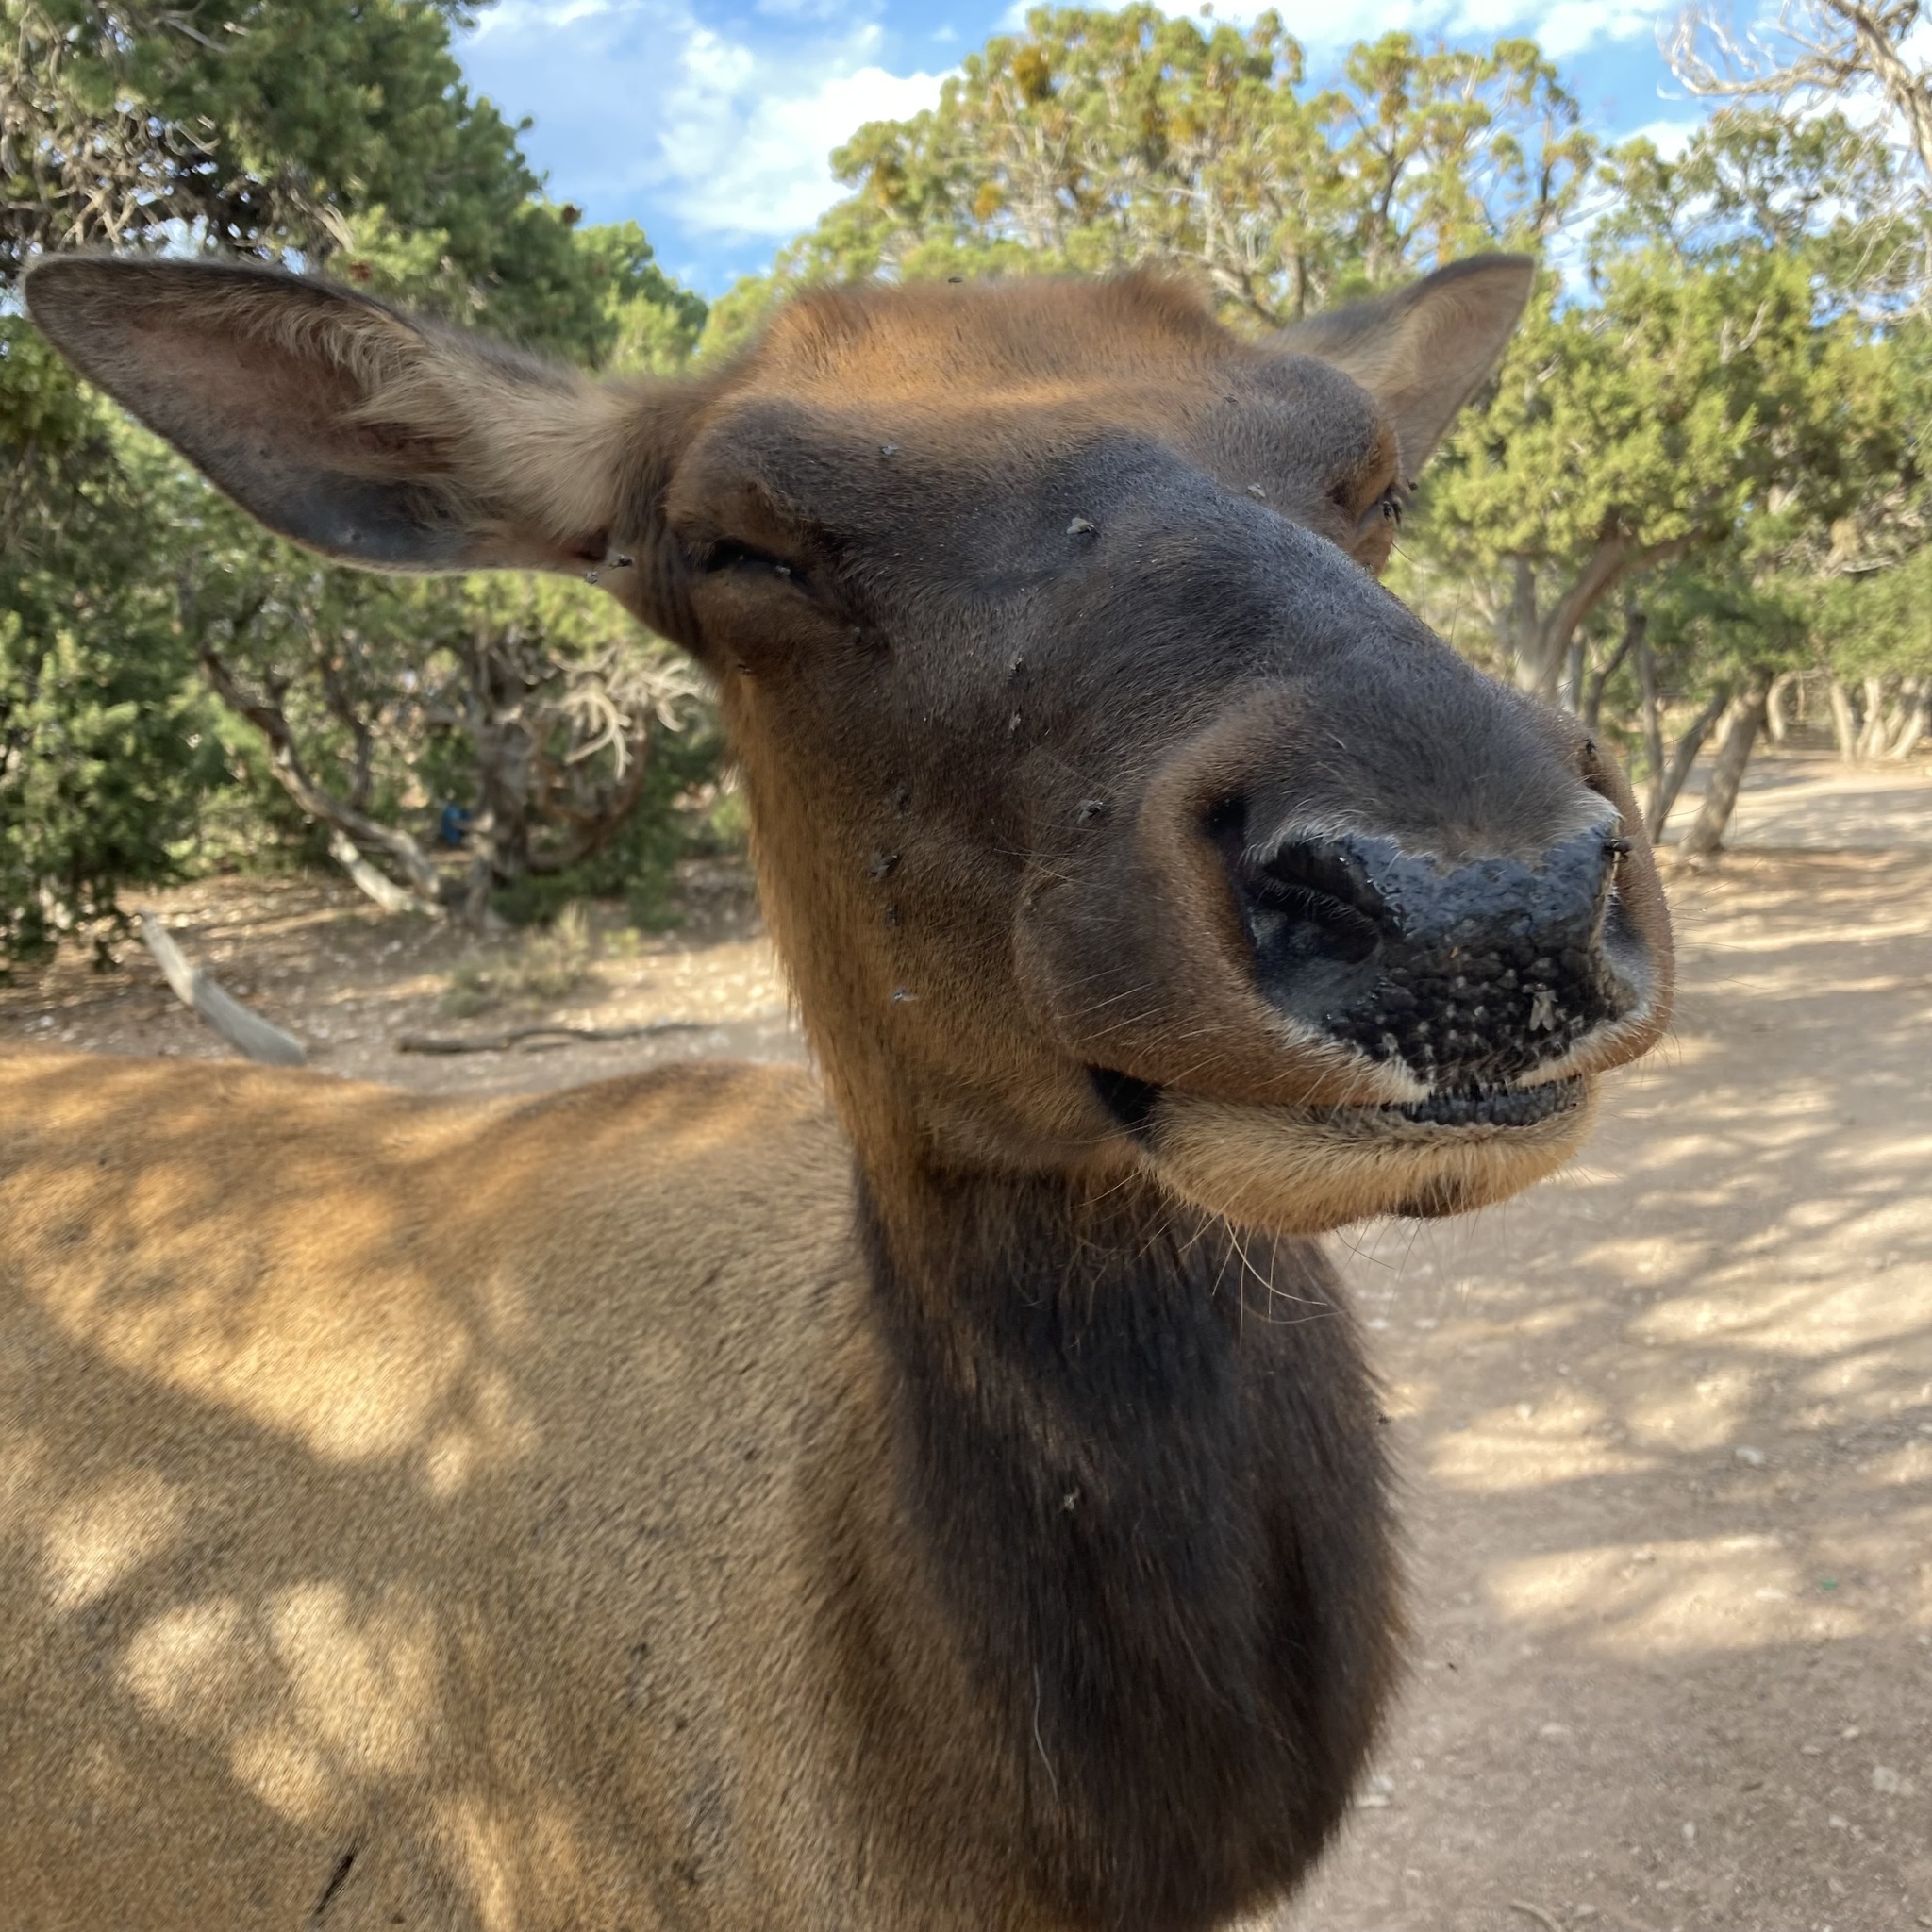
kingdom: Animalia
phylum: Chordata
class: Mammalia
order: Artiodactyla
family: Cervidae
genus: Cervus
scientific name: Cervus elaphus
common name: Red deer
